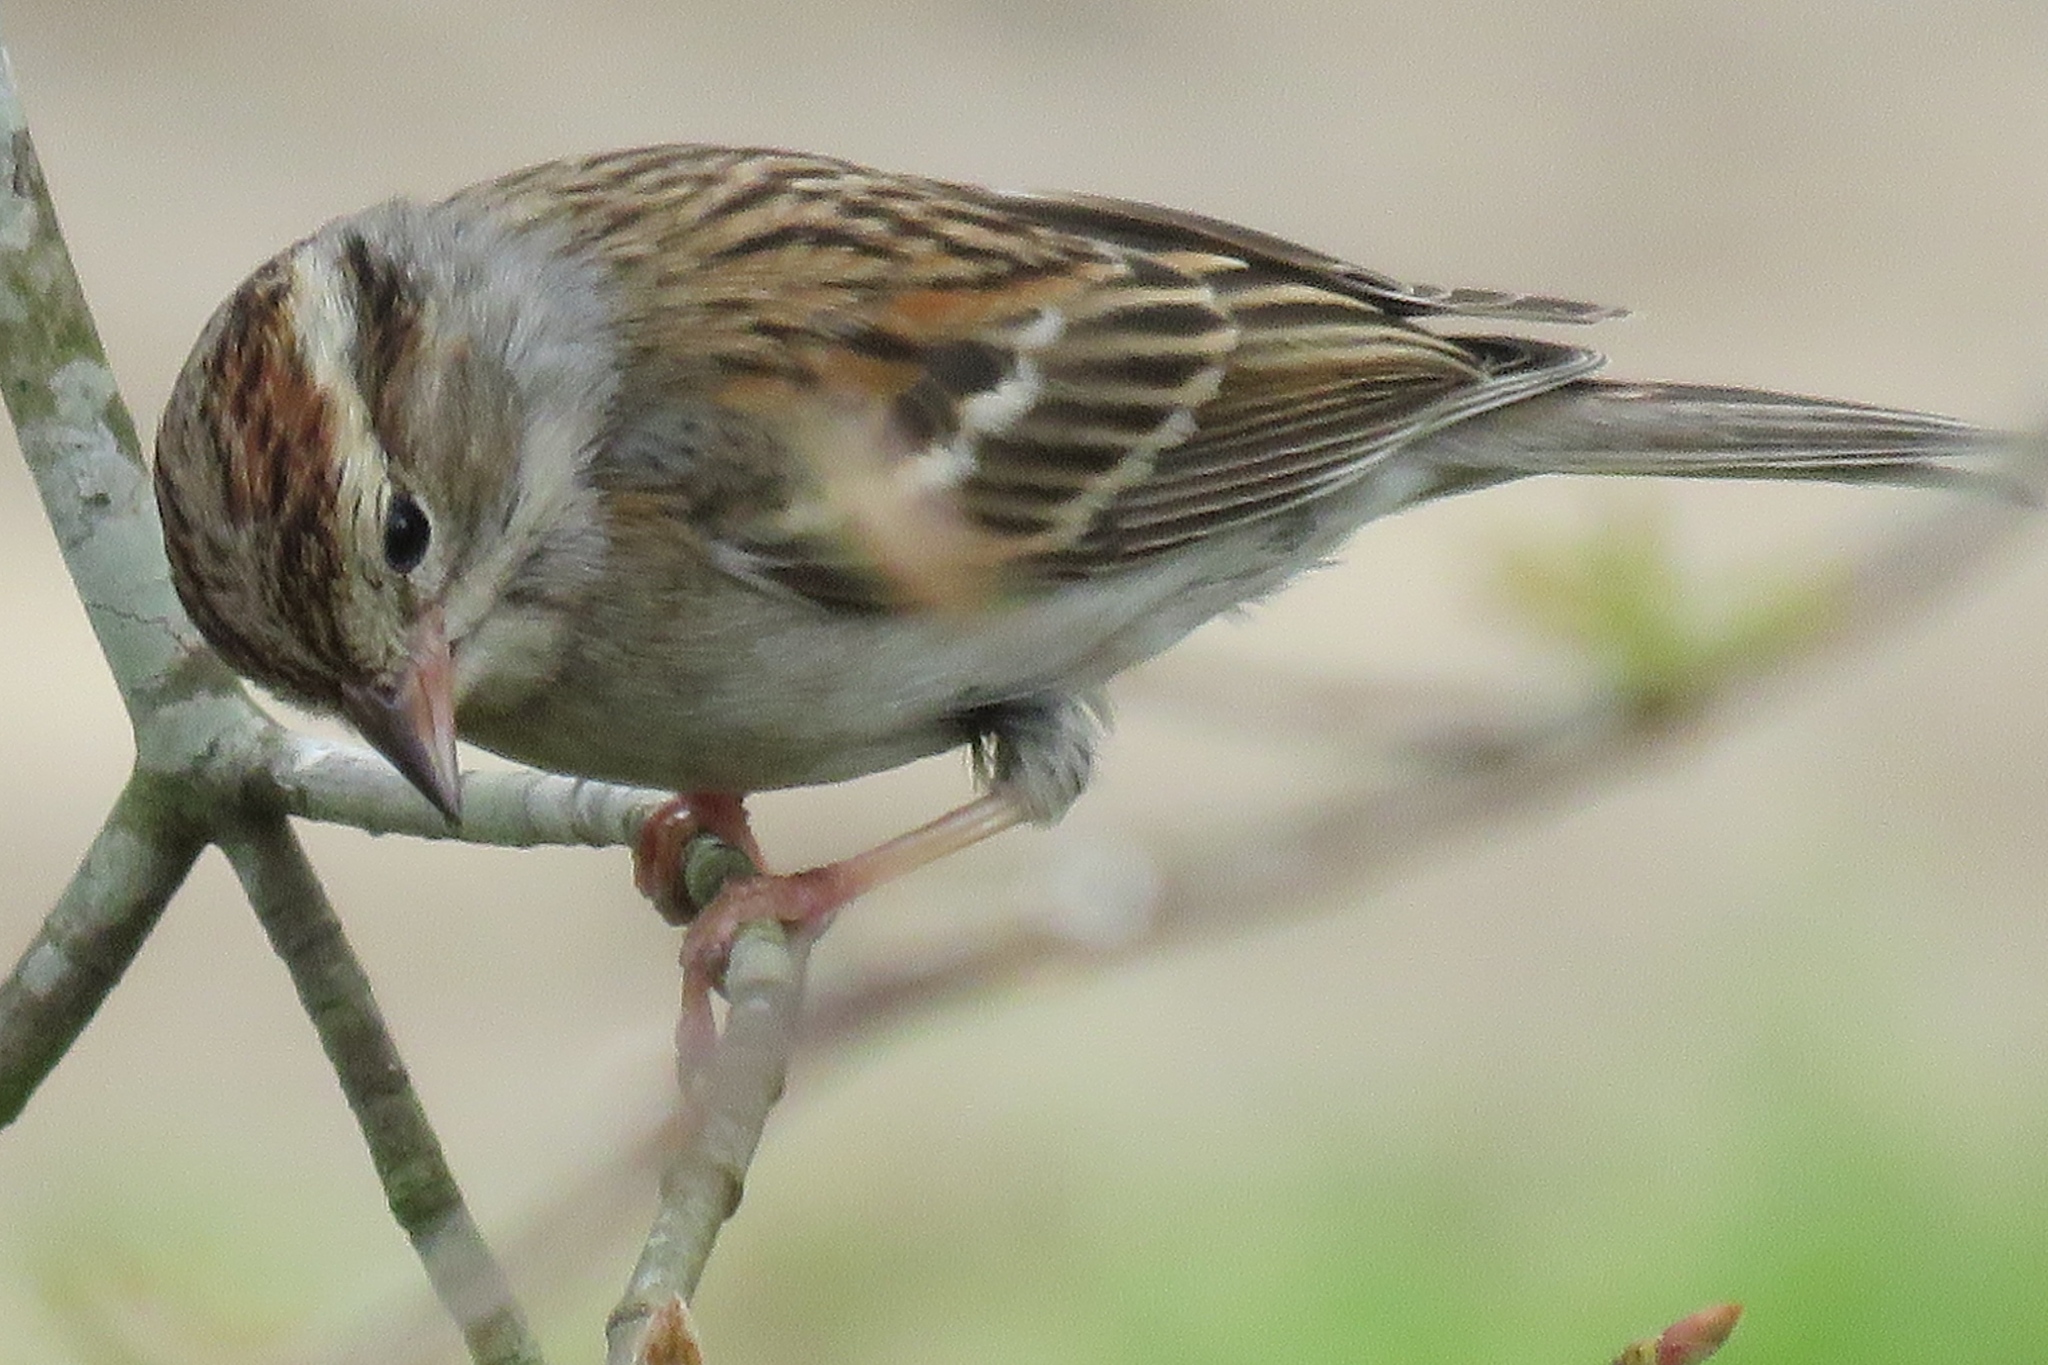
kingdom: Animalia
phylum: Chordata
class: Aves
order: Passeriformes
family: Passerellidae
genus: Spizella
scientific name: Spizella passerina
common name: Chipping sparrow
